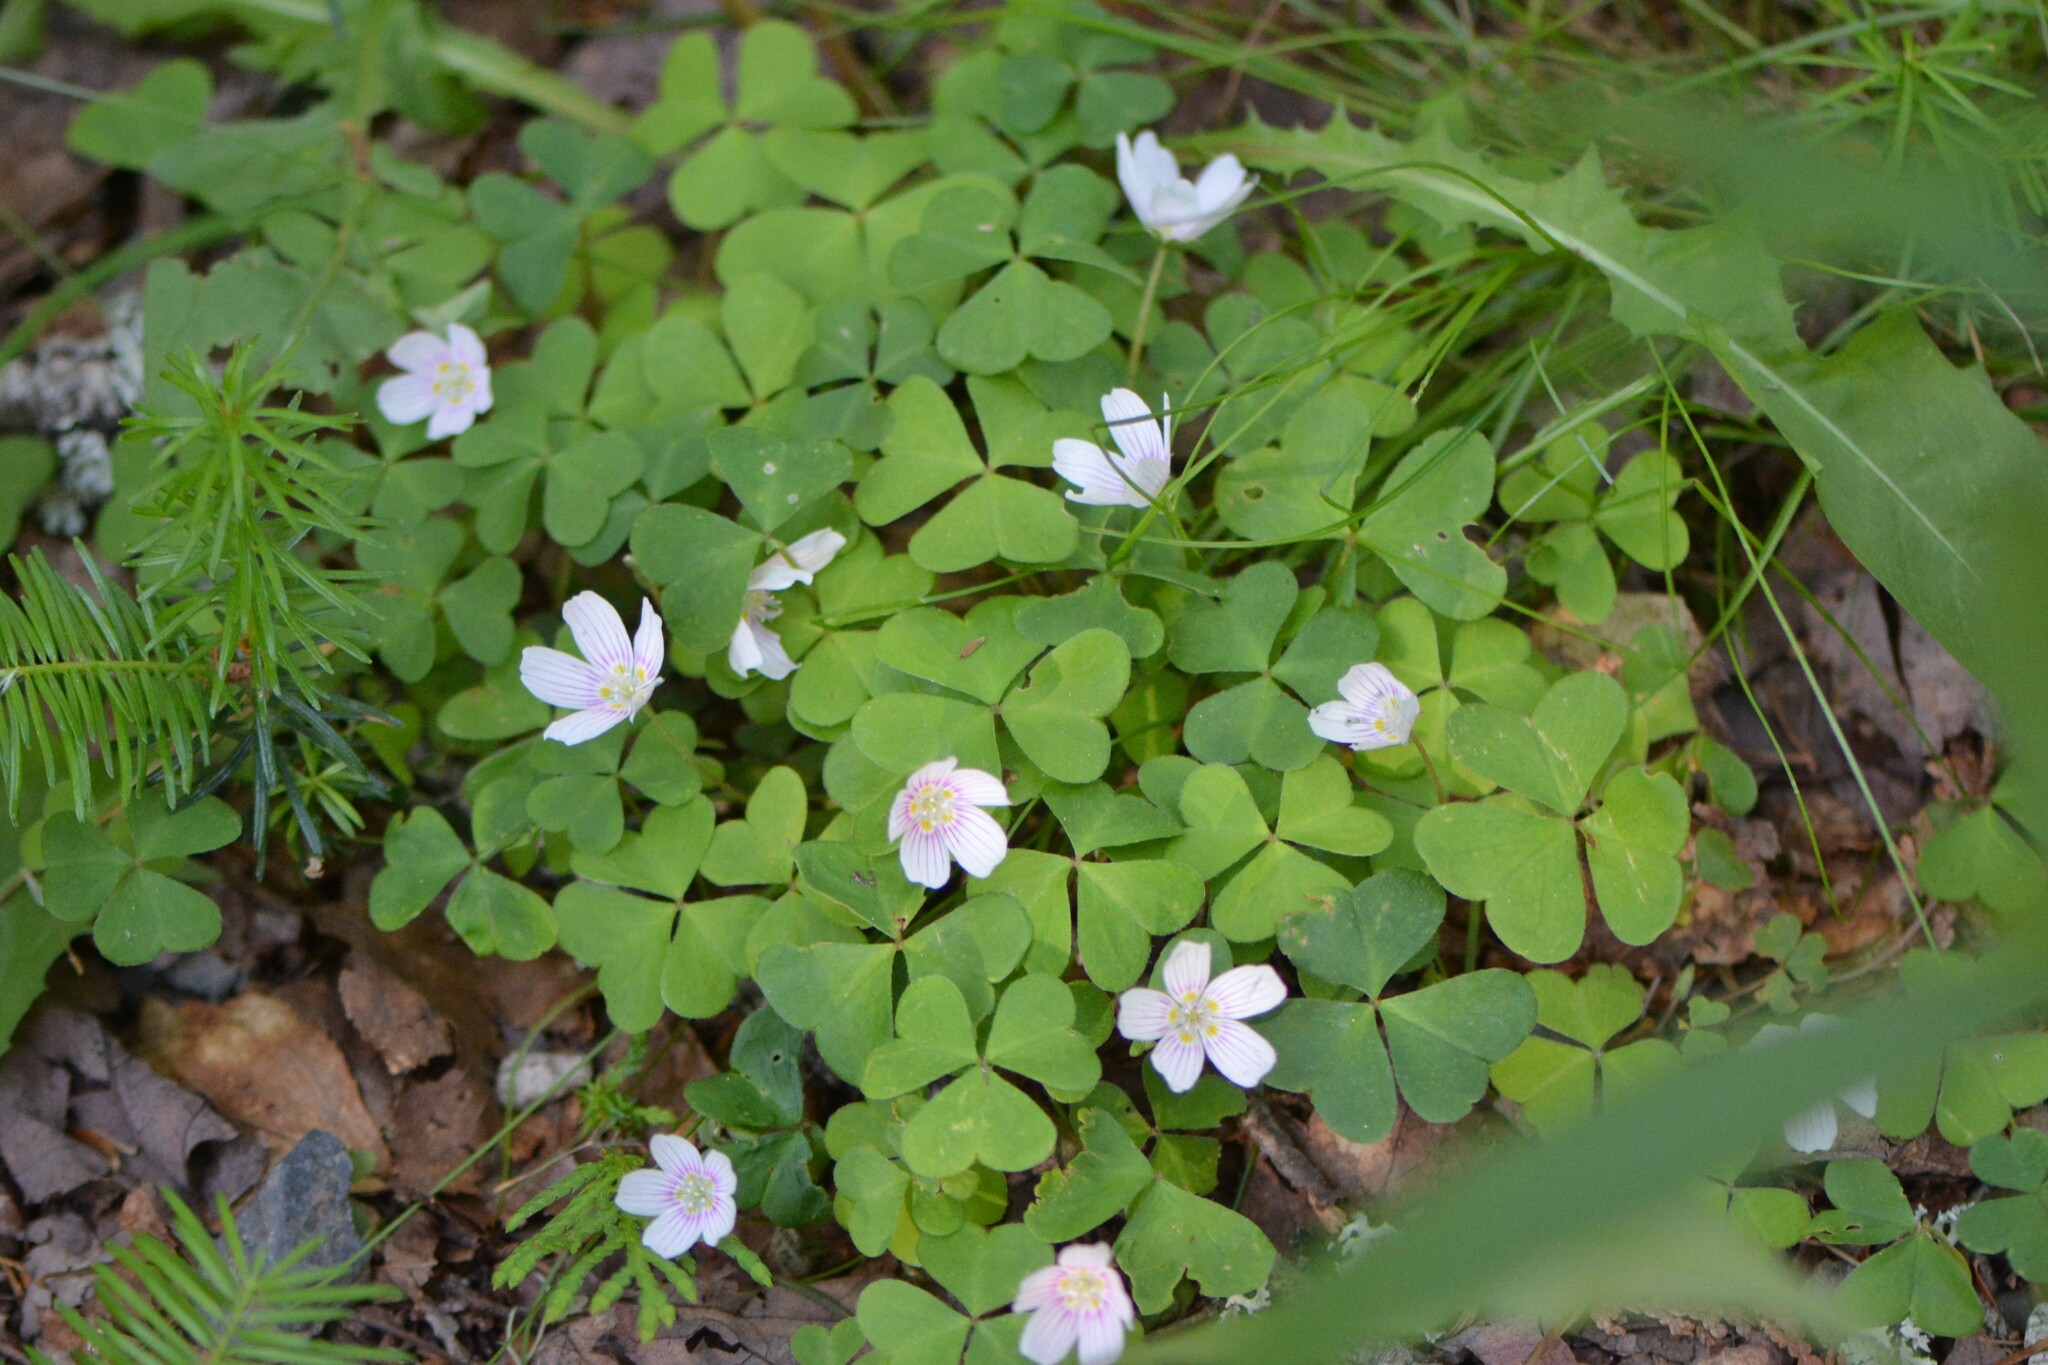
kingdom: Plantae
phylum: Tracheophyta
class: Magnoliopsida
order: Oxalidales
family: Oxalidaceae
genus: Oxalis
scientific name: Oxalis montana
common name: American wood-sorrel
